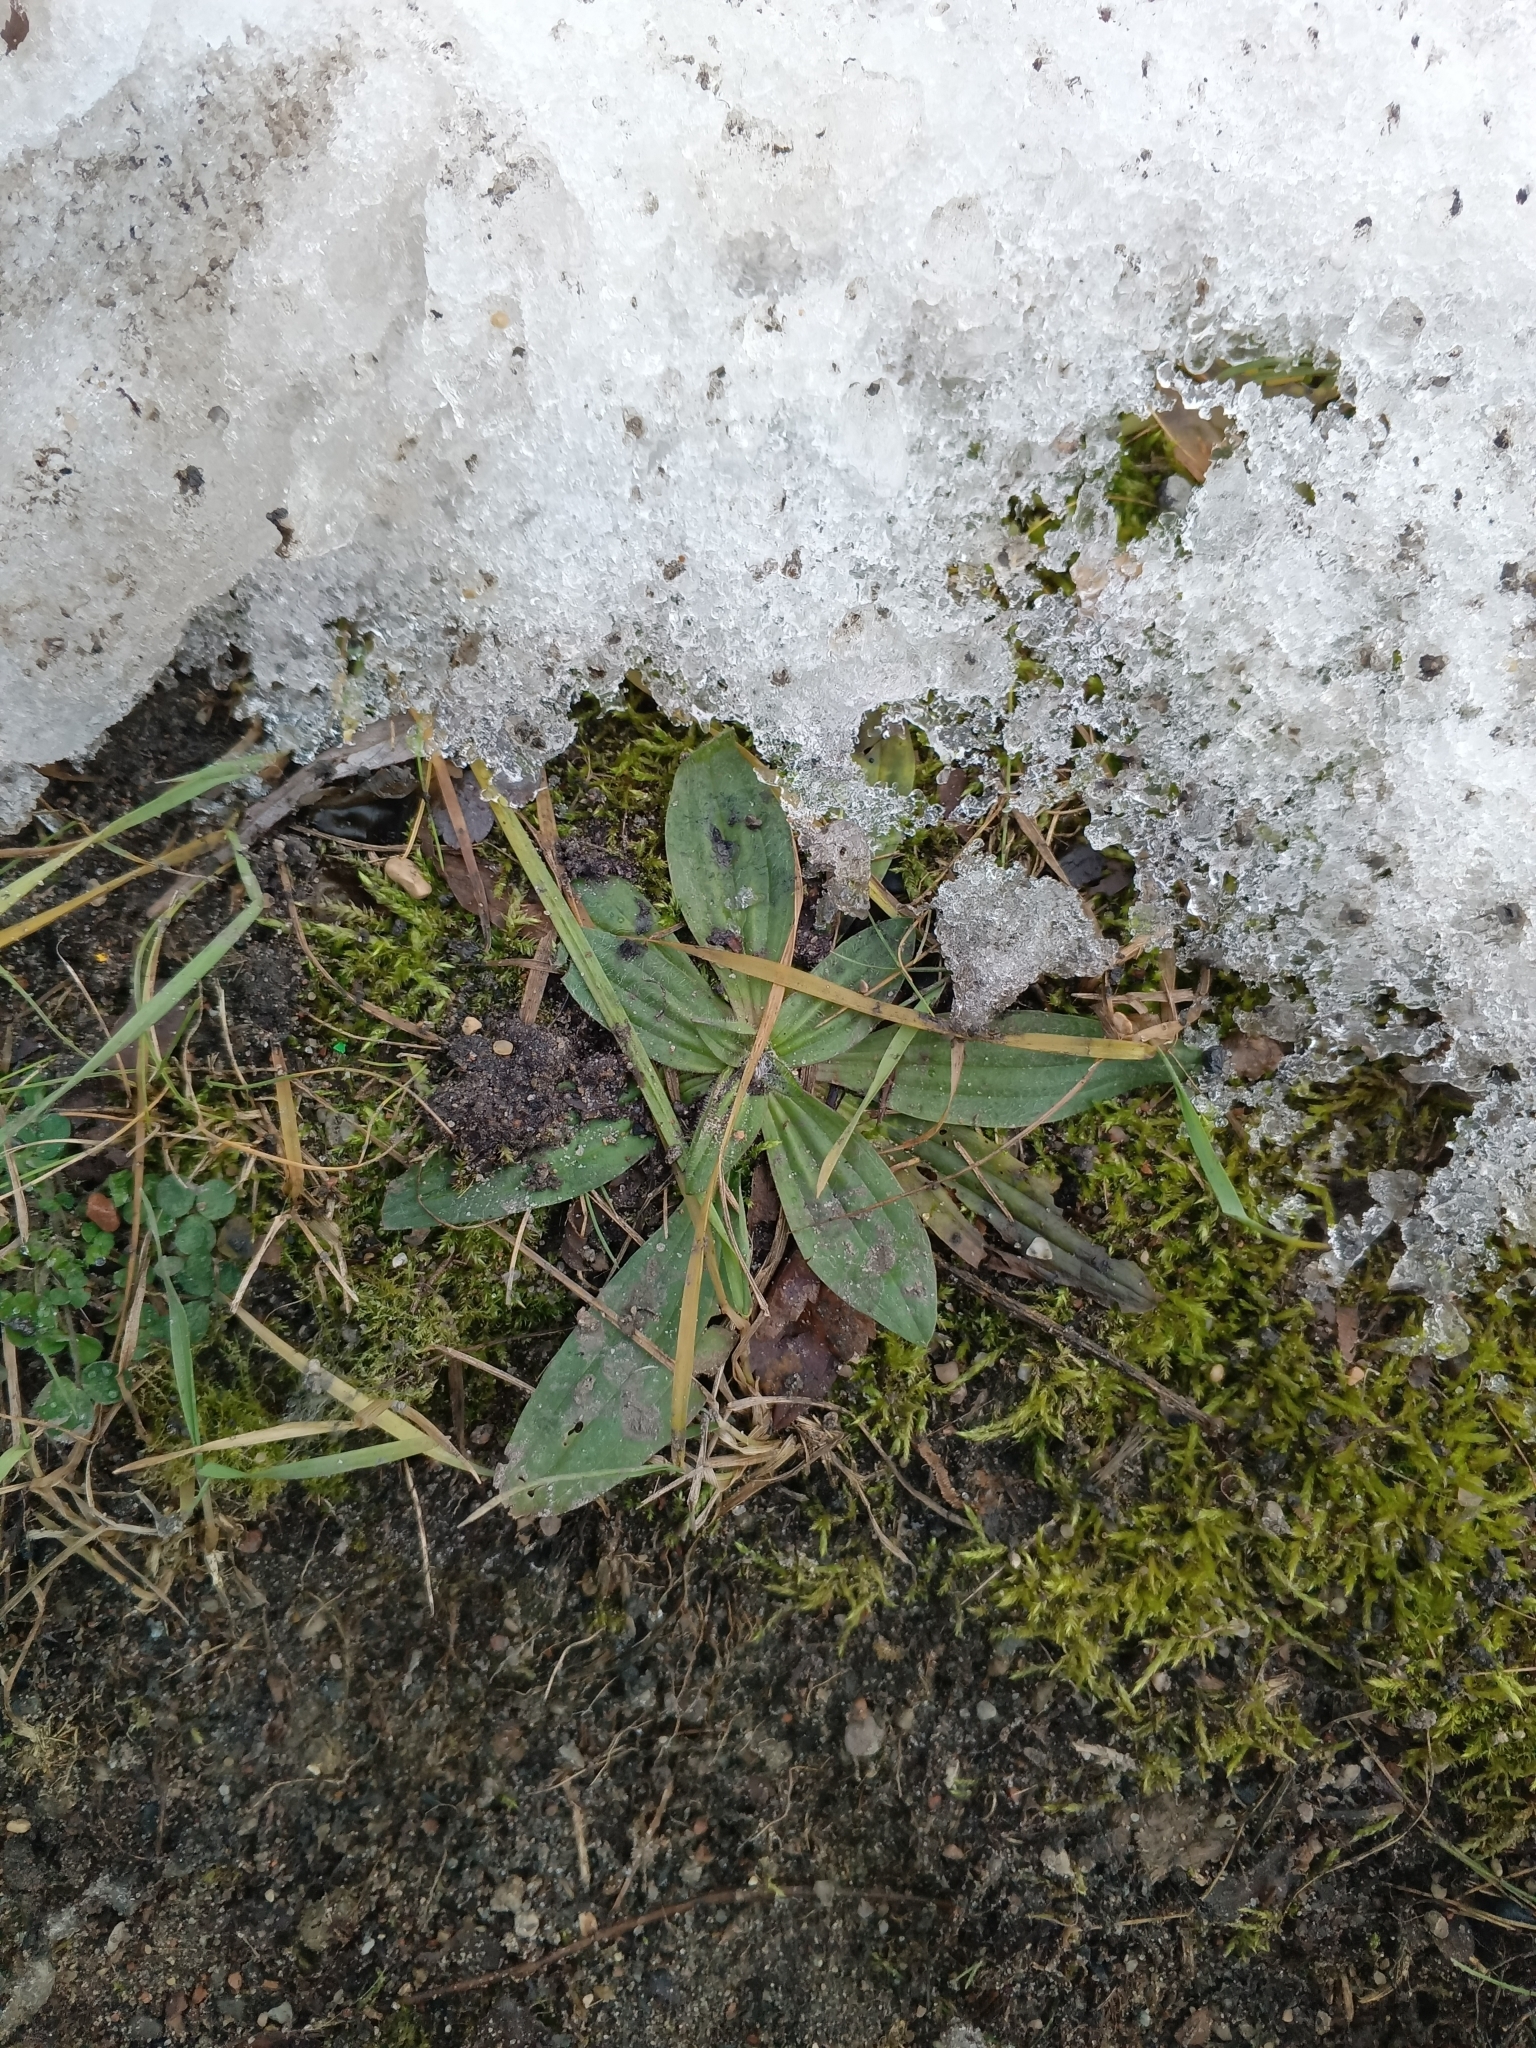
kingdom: Plantae
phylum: Tracheophyta
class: Magnoliopsida
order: Lamiales
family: Plantaginaceae
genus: Plantago
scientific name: Plantago lanceolata
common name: Ribwort plantain
